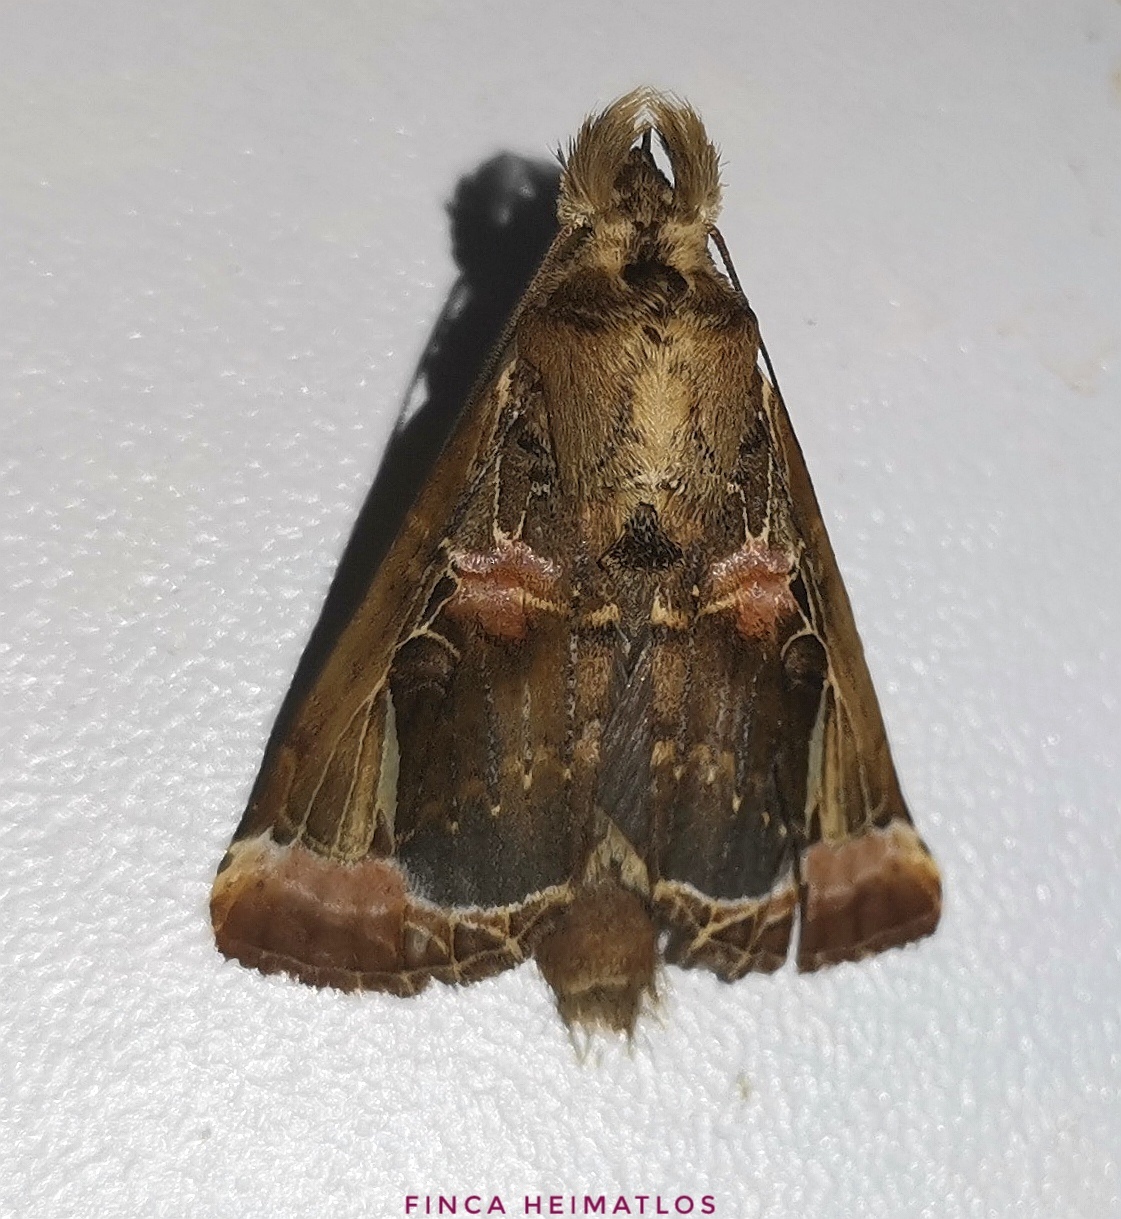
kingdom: Animalia
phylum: Arthropoda
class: Insecta
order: Lepidoptera
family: Notodontidae
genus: Calledema
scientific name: Calledema plusioides
